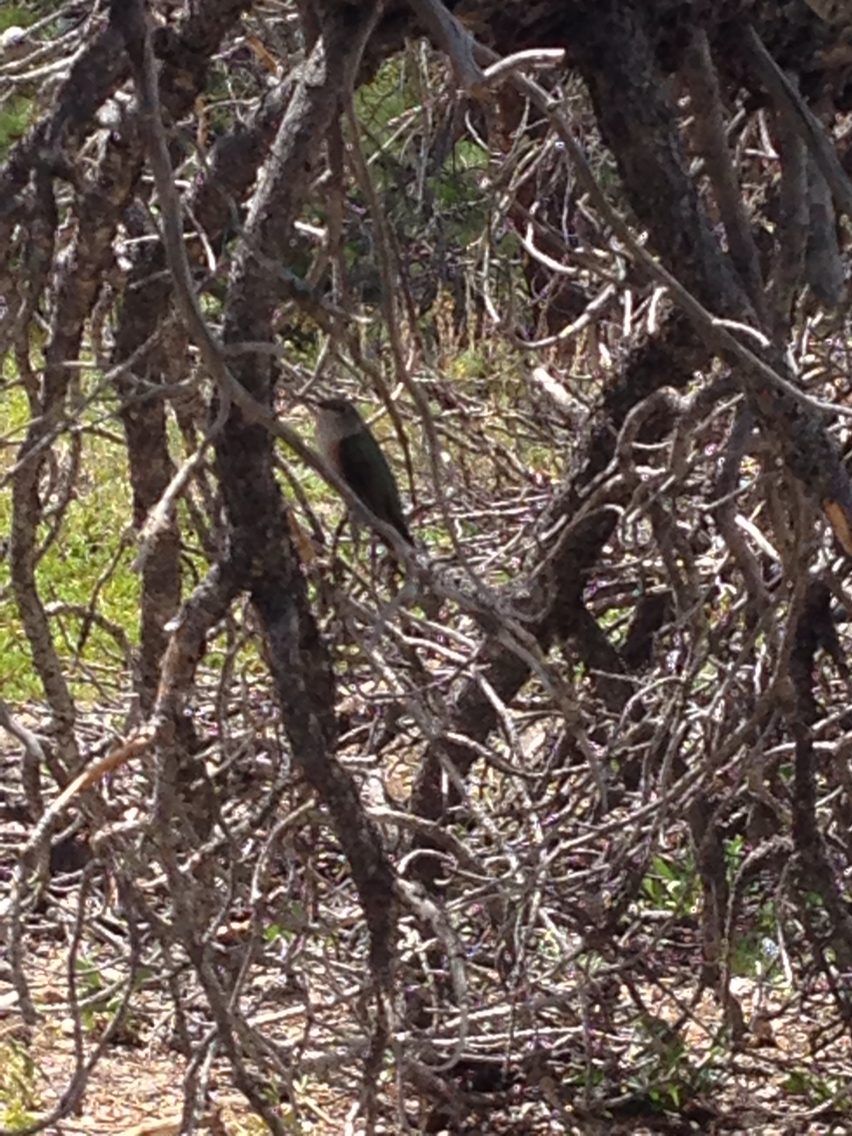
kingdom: Animalia
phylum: Chordata
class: Aves
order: Apodiformes
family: Trochilidae
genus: Selasphorus
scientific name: Selasphorus platycercus
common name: Broad-tailed hummingbird
